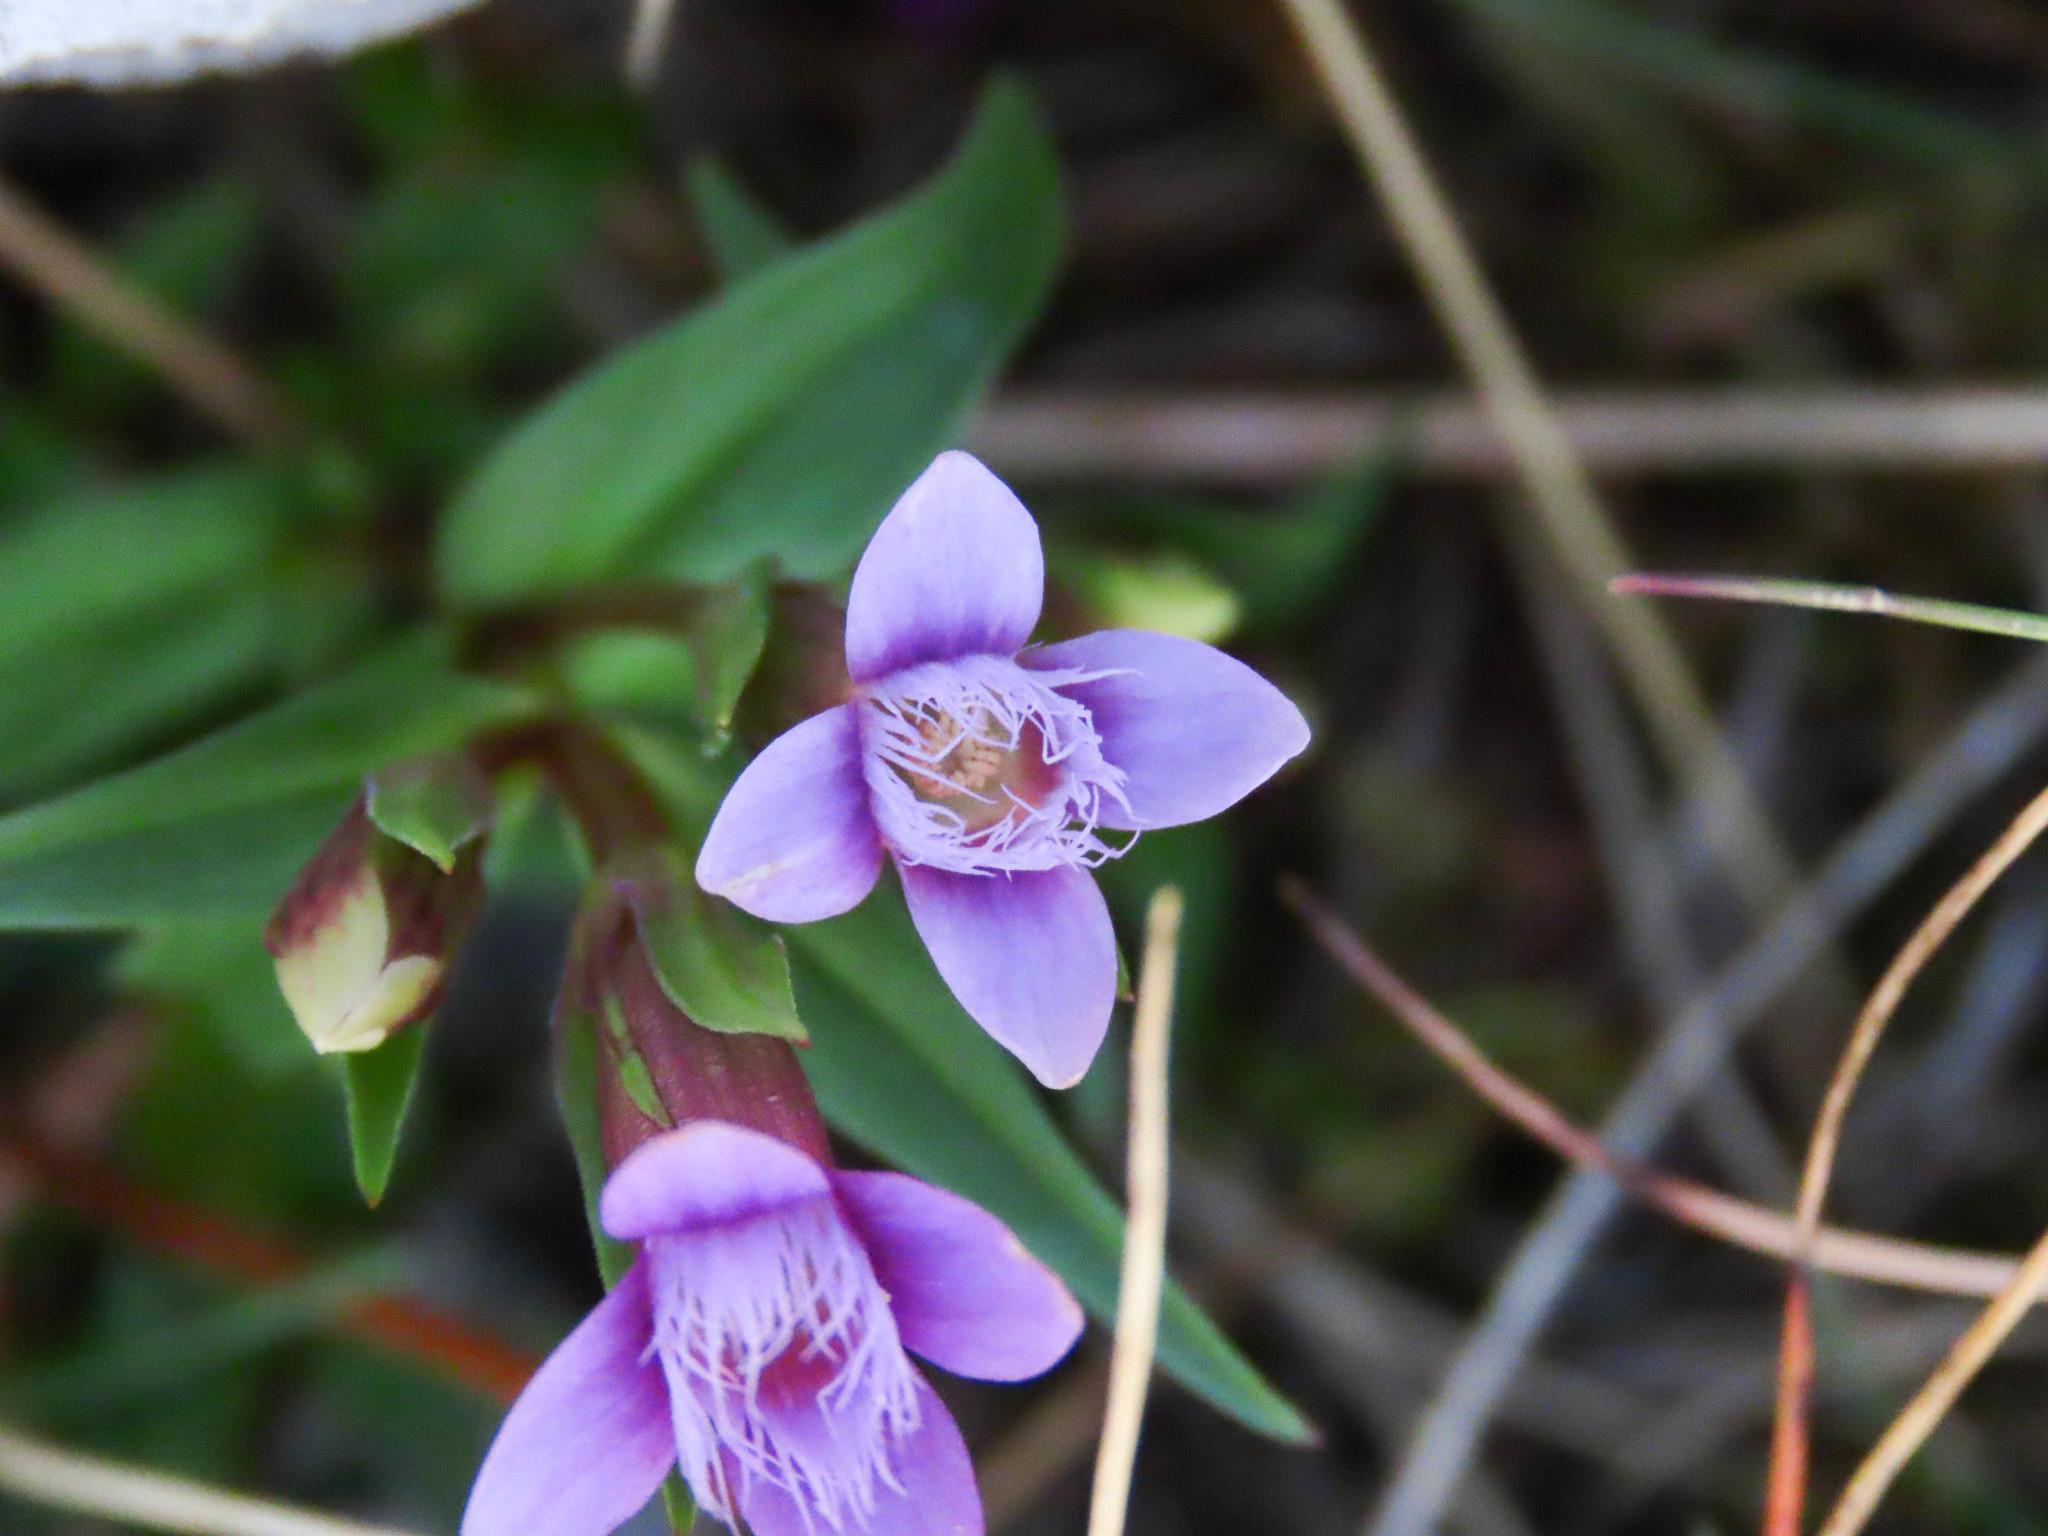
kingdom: Plantae
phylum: Tracheophyta
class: Magnoliopsida
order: Gentianales
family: Gentianaceae
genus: Gentianella
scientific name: Gentianella columnae
